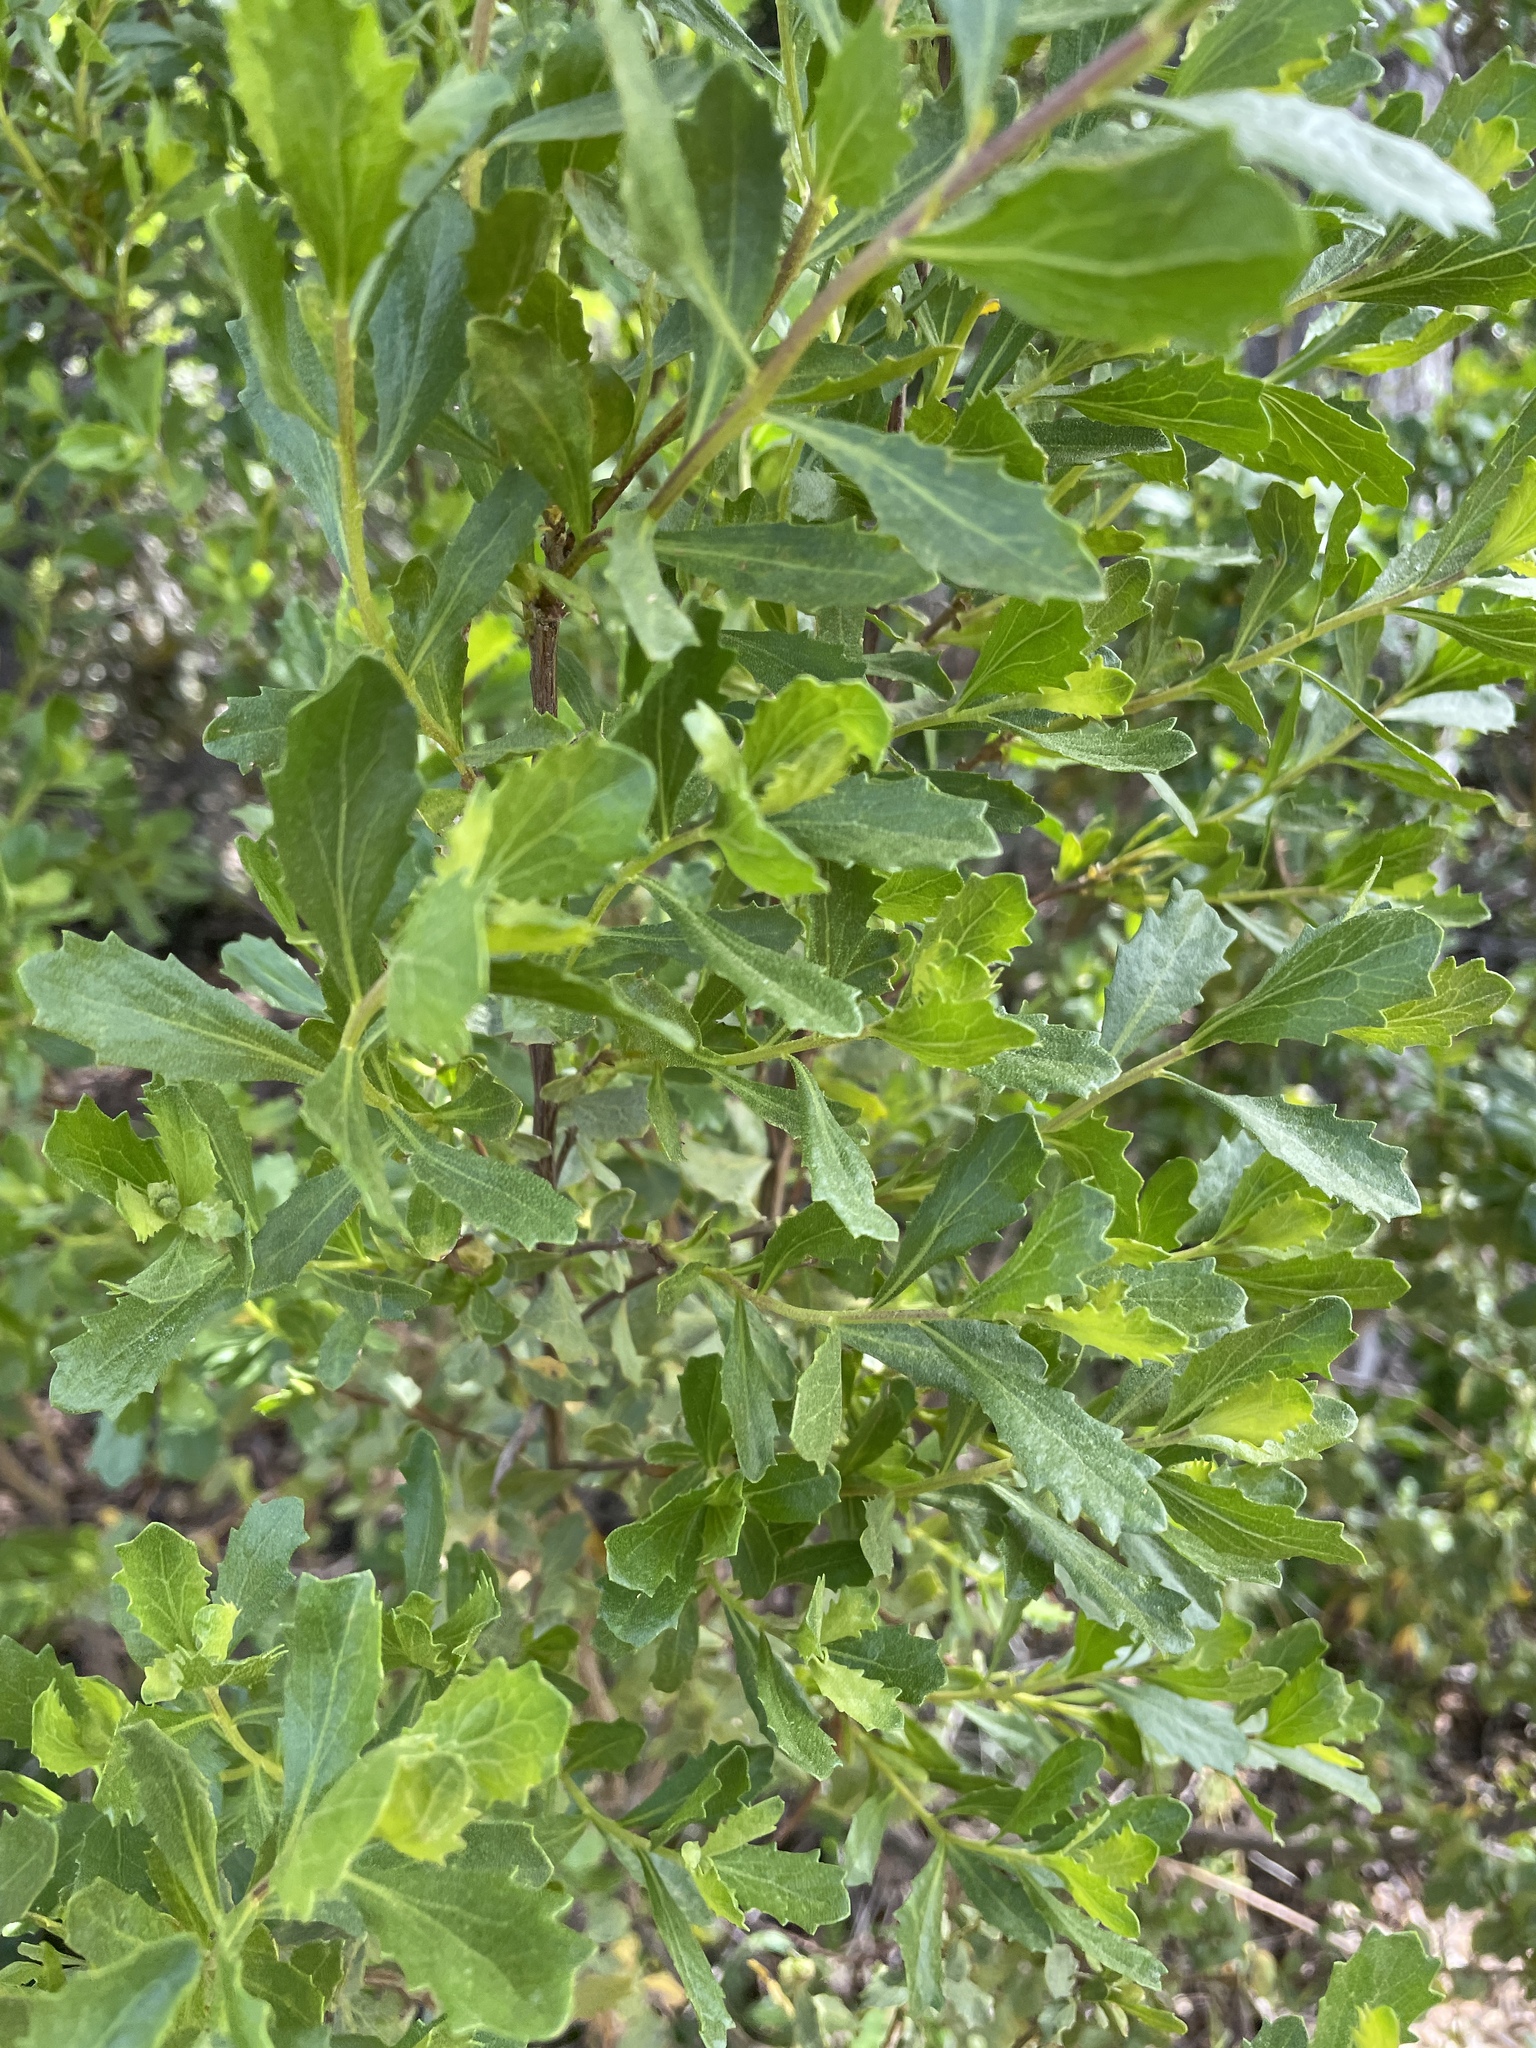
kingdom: Plantae
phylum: Tracheophyta
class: Magnoliopsida
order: Asterales
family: Asteraceae
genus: Baccharis
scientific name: Baccharis pilularis
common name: Coyotebrush
